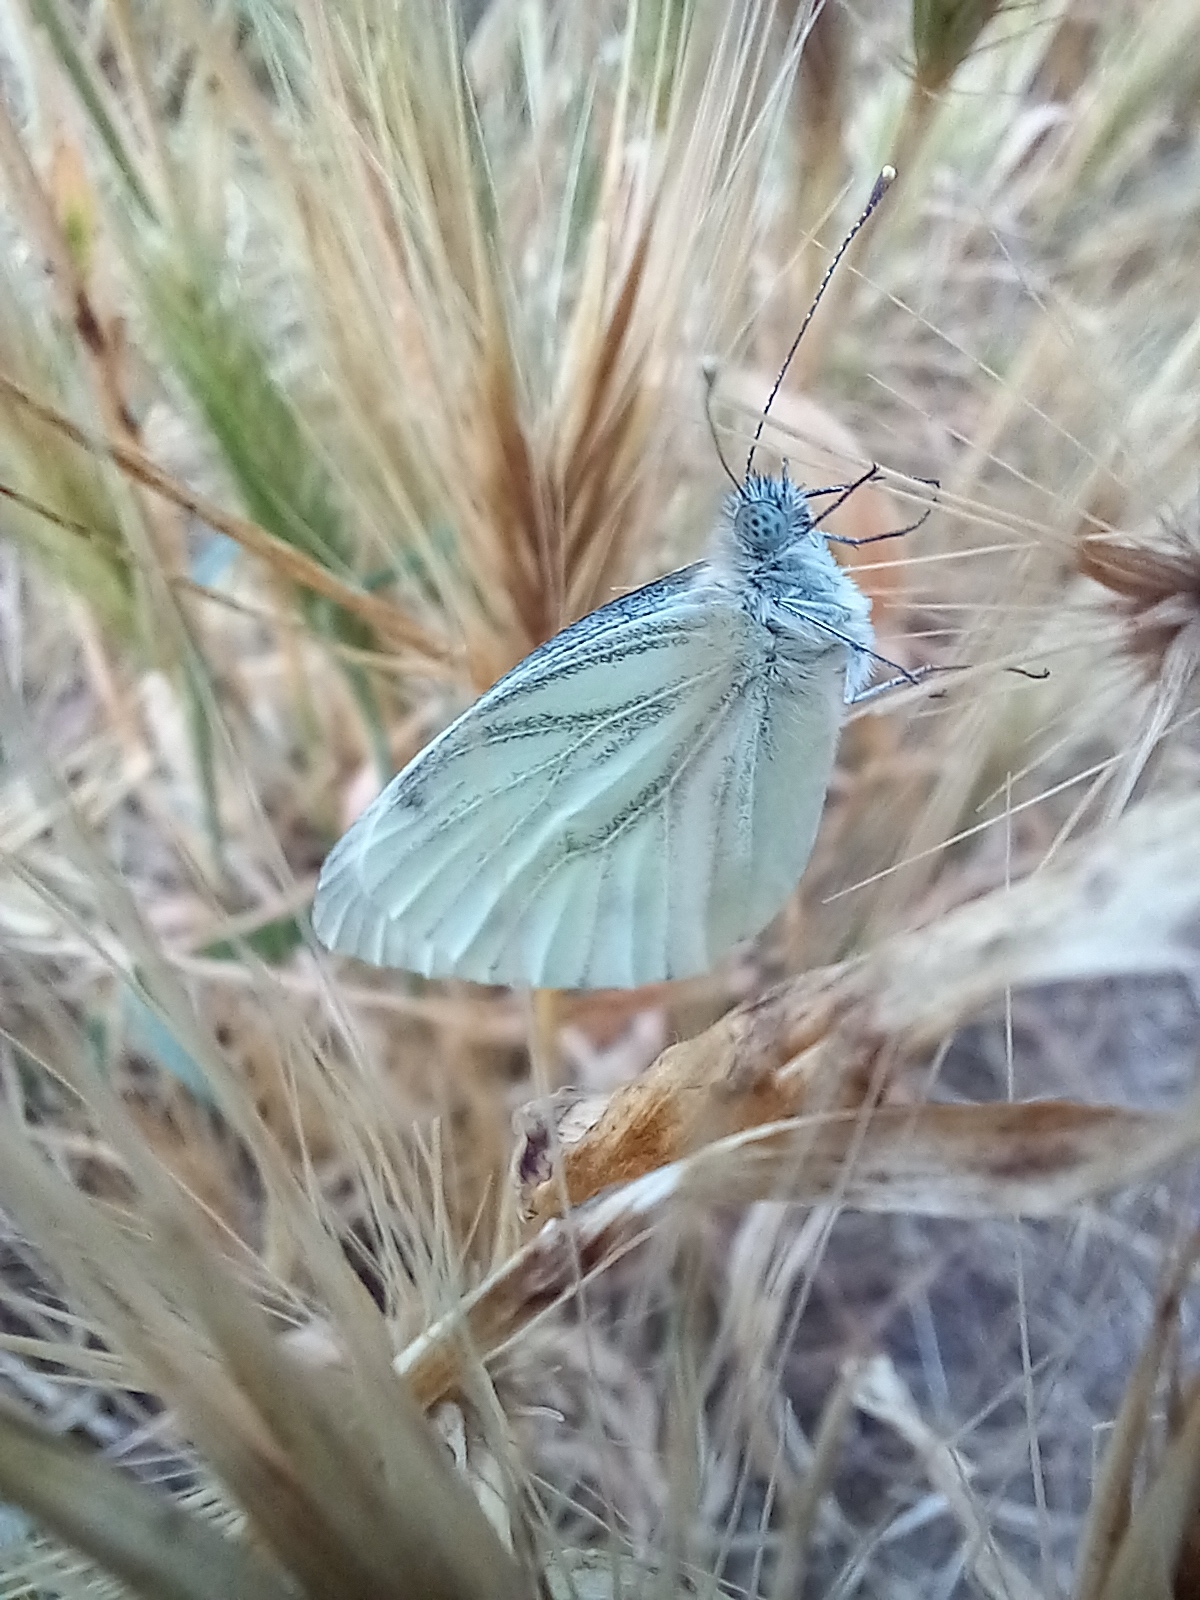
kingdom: Animalia
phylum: Arthropoda
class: Insecta
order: Lepidoptera
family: Pieridae
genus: Pieris
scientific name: Pieris napi
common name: Green-veined white
